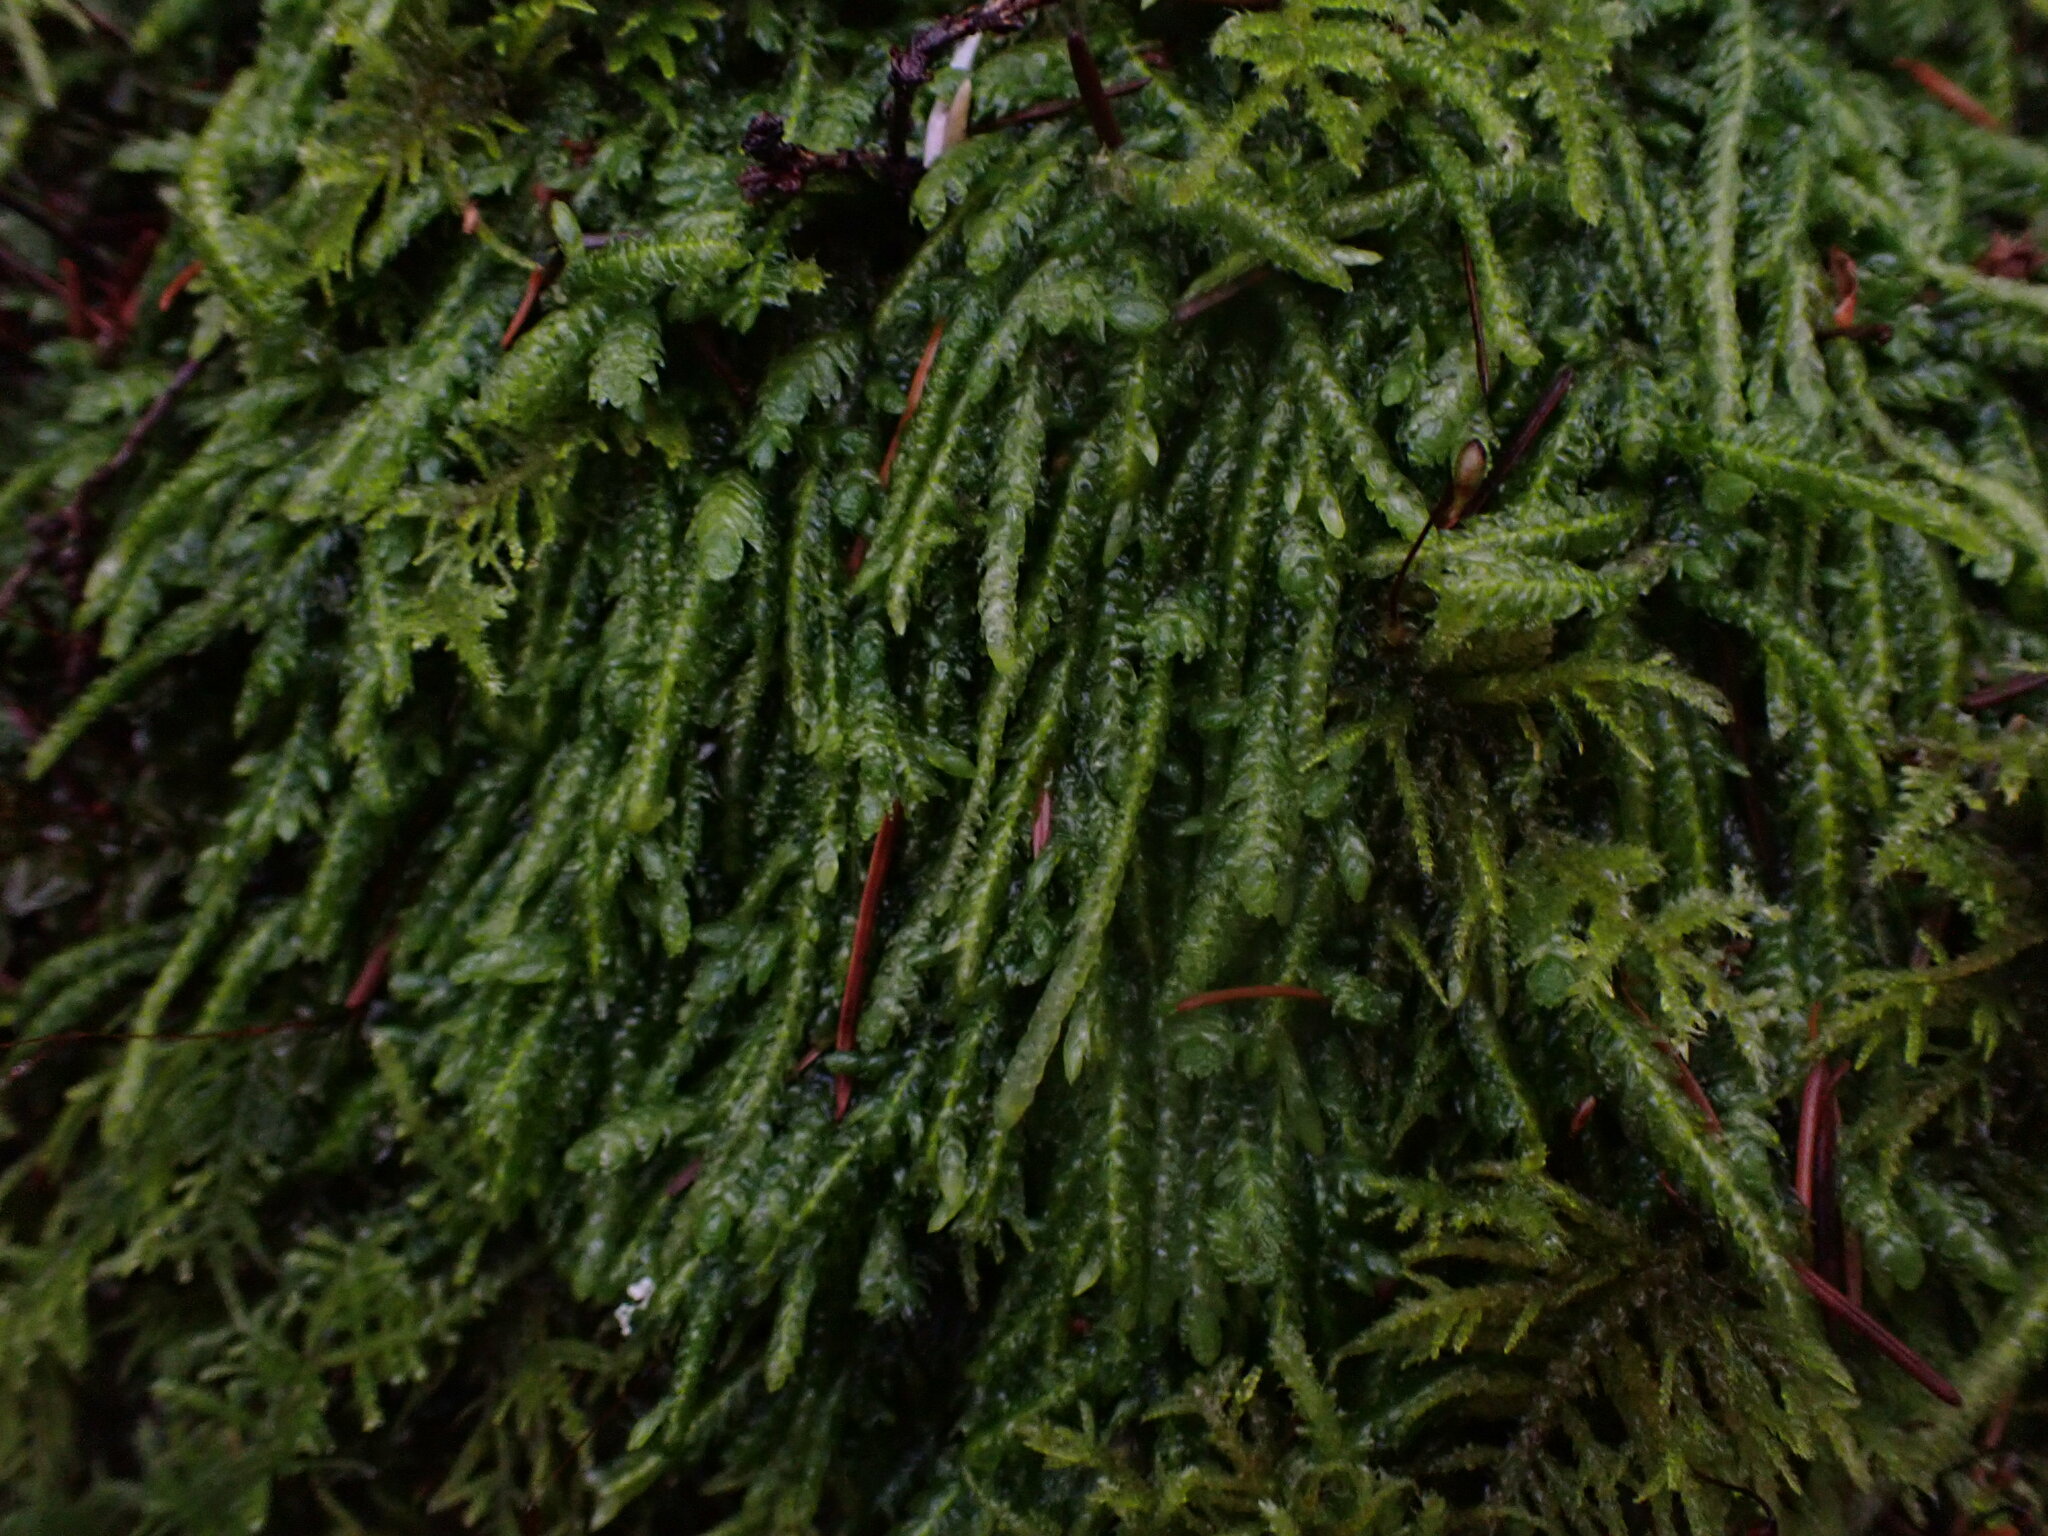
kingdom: Plantae
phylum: Bryophyta
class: Bryopsida
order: Hypnales
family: Plagiotheciaceae
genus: Plagiothecium
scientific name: Plagiothecium undulatum
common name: Waved silk-moss
